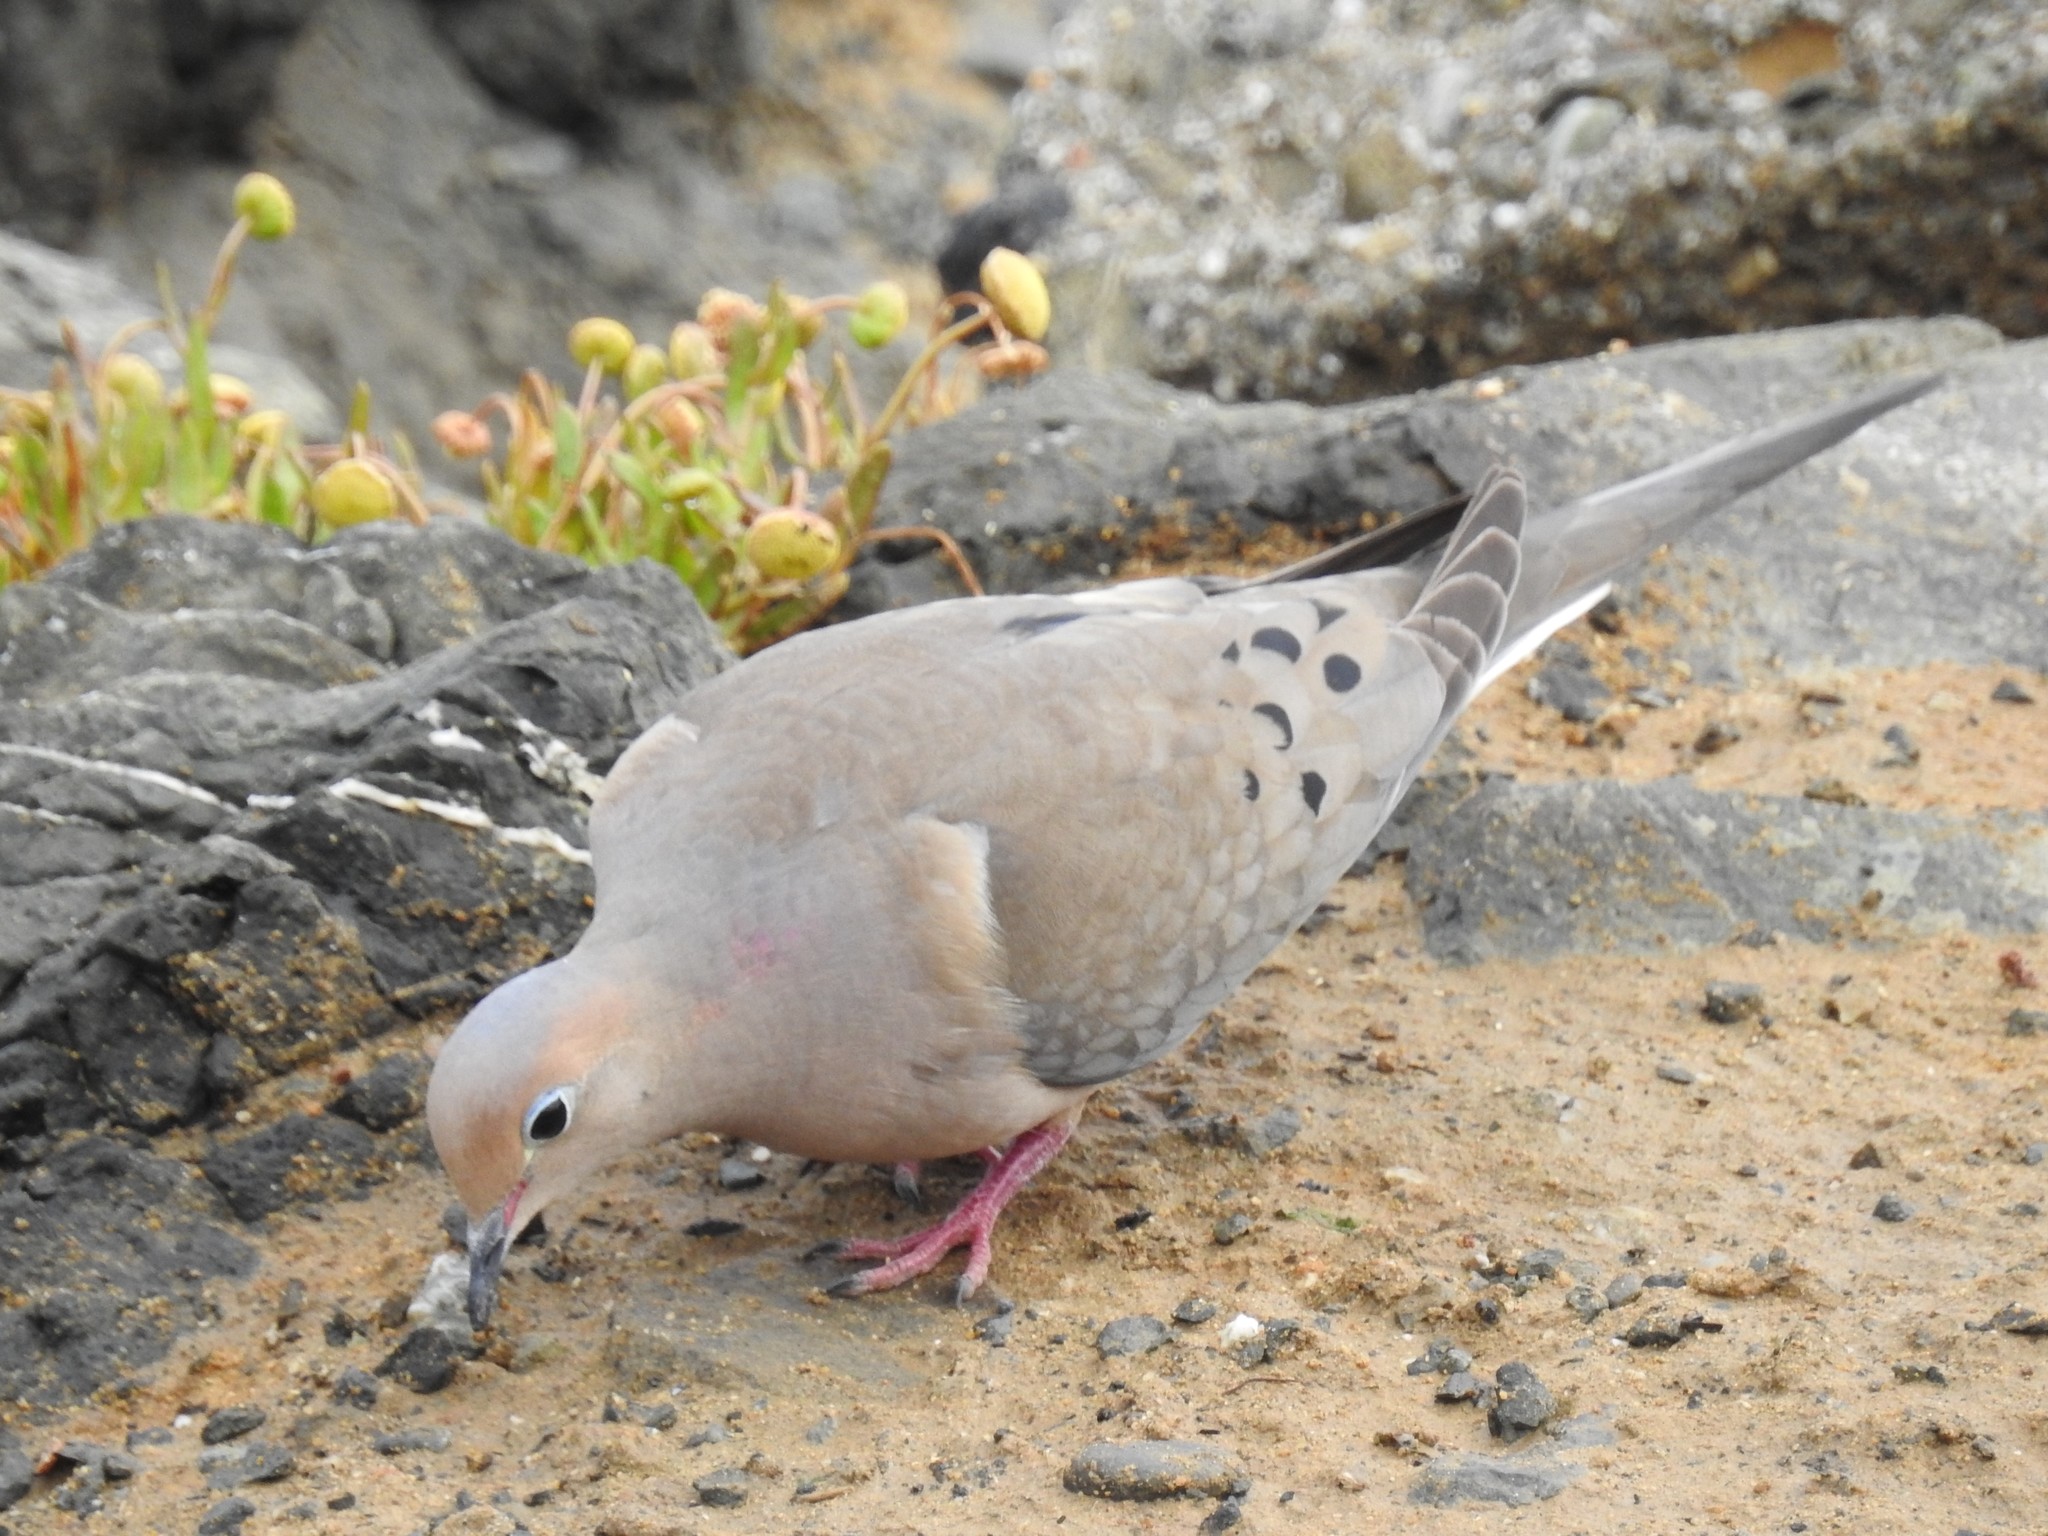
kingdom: Animalia
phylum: Chordata
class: Aves
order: Columbiformes
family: Columbidae
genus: Zenaida
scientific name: Zenaida macroura
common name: Mourning dove
